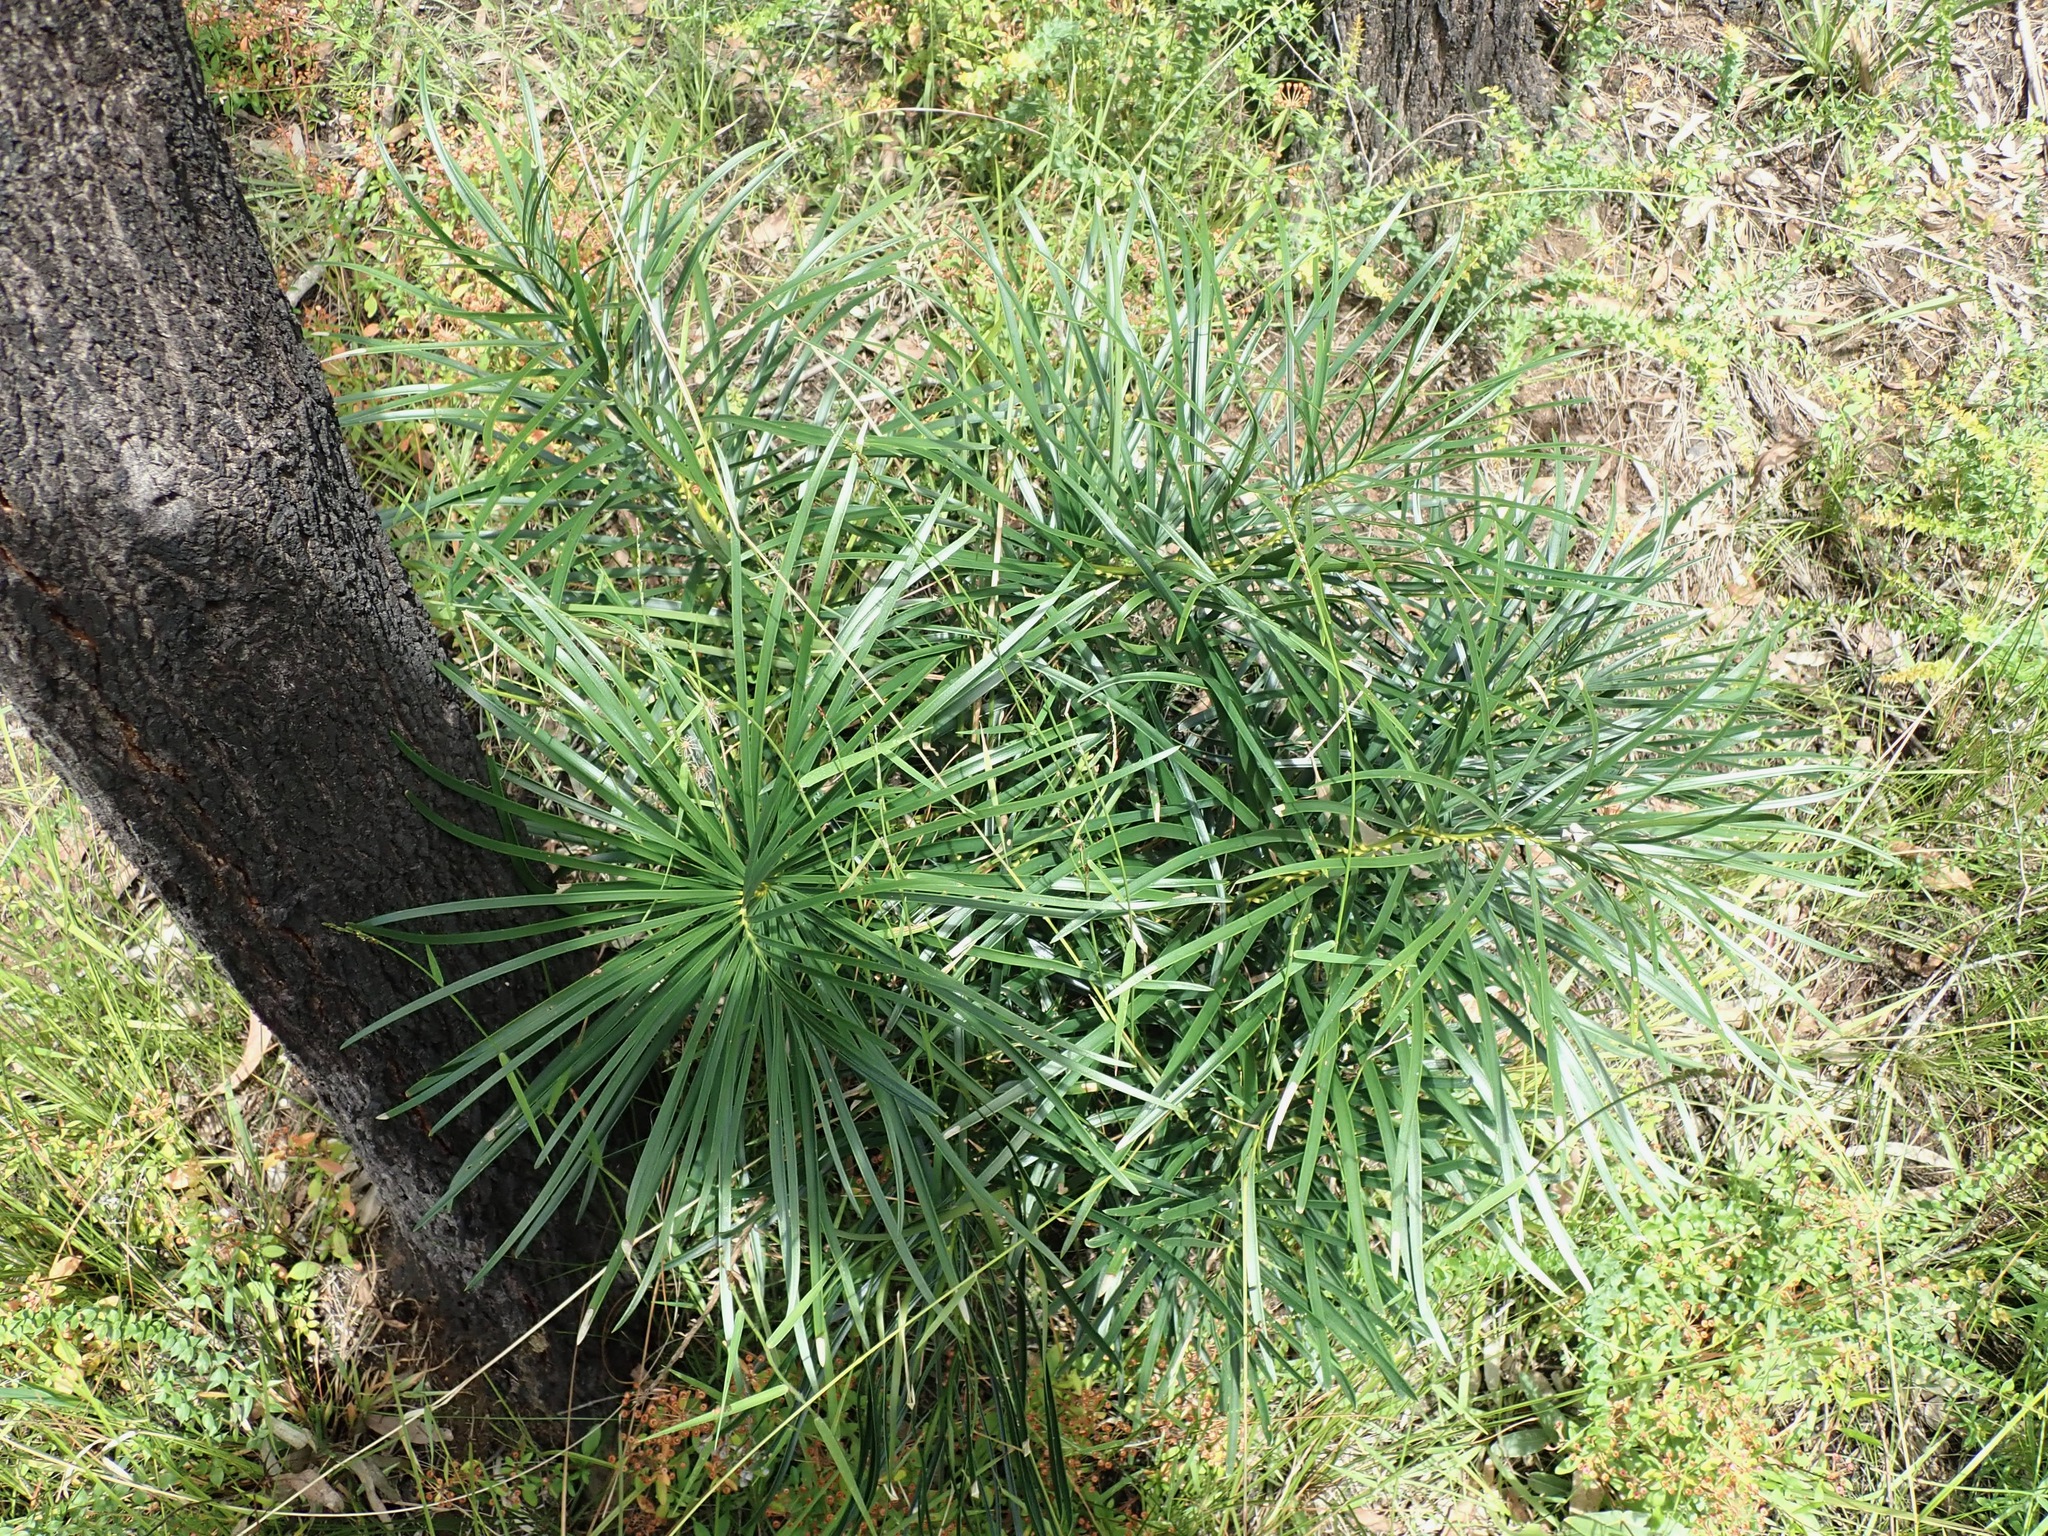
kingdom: Plantae
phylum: Tracheophyta
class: Cycadopsida
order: Cycadales
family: Zamiaceae
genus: Macrozamia
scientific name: Macrozamia flexuosa
